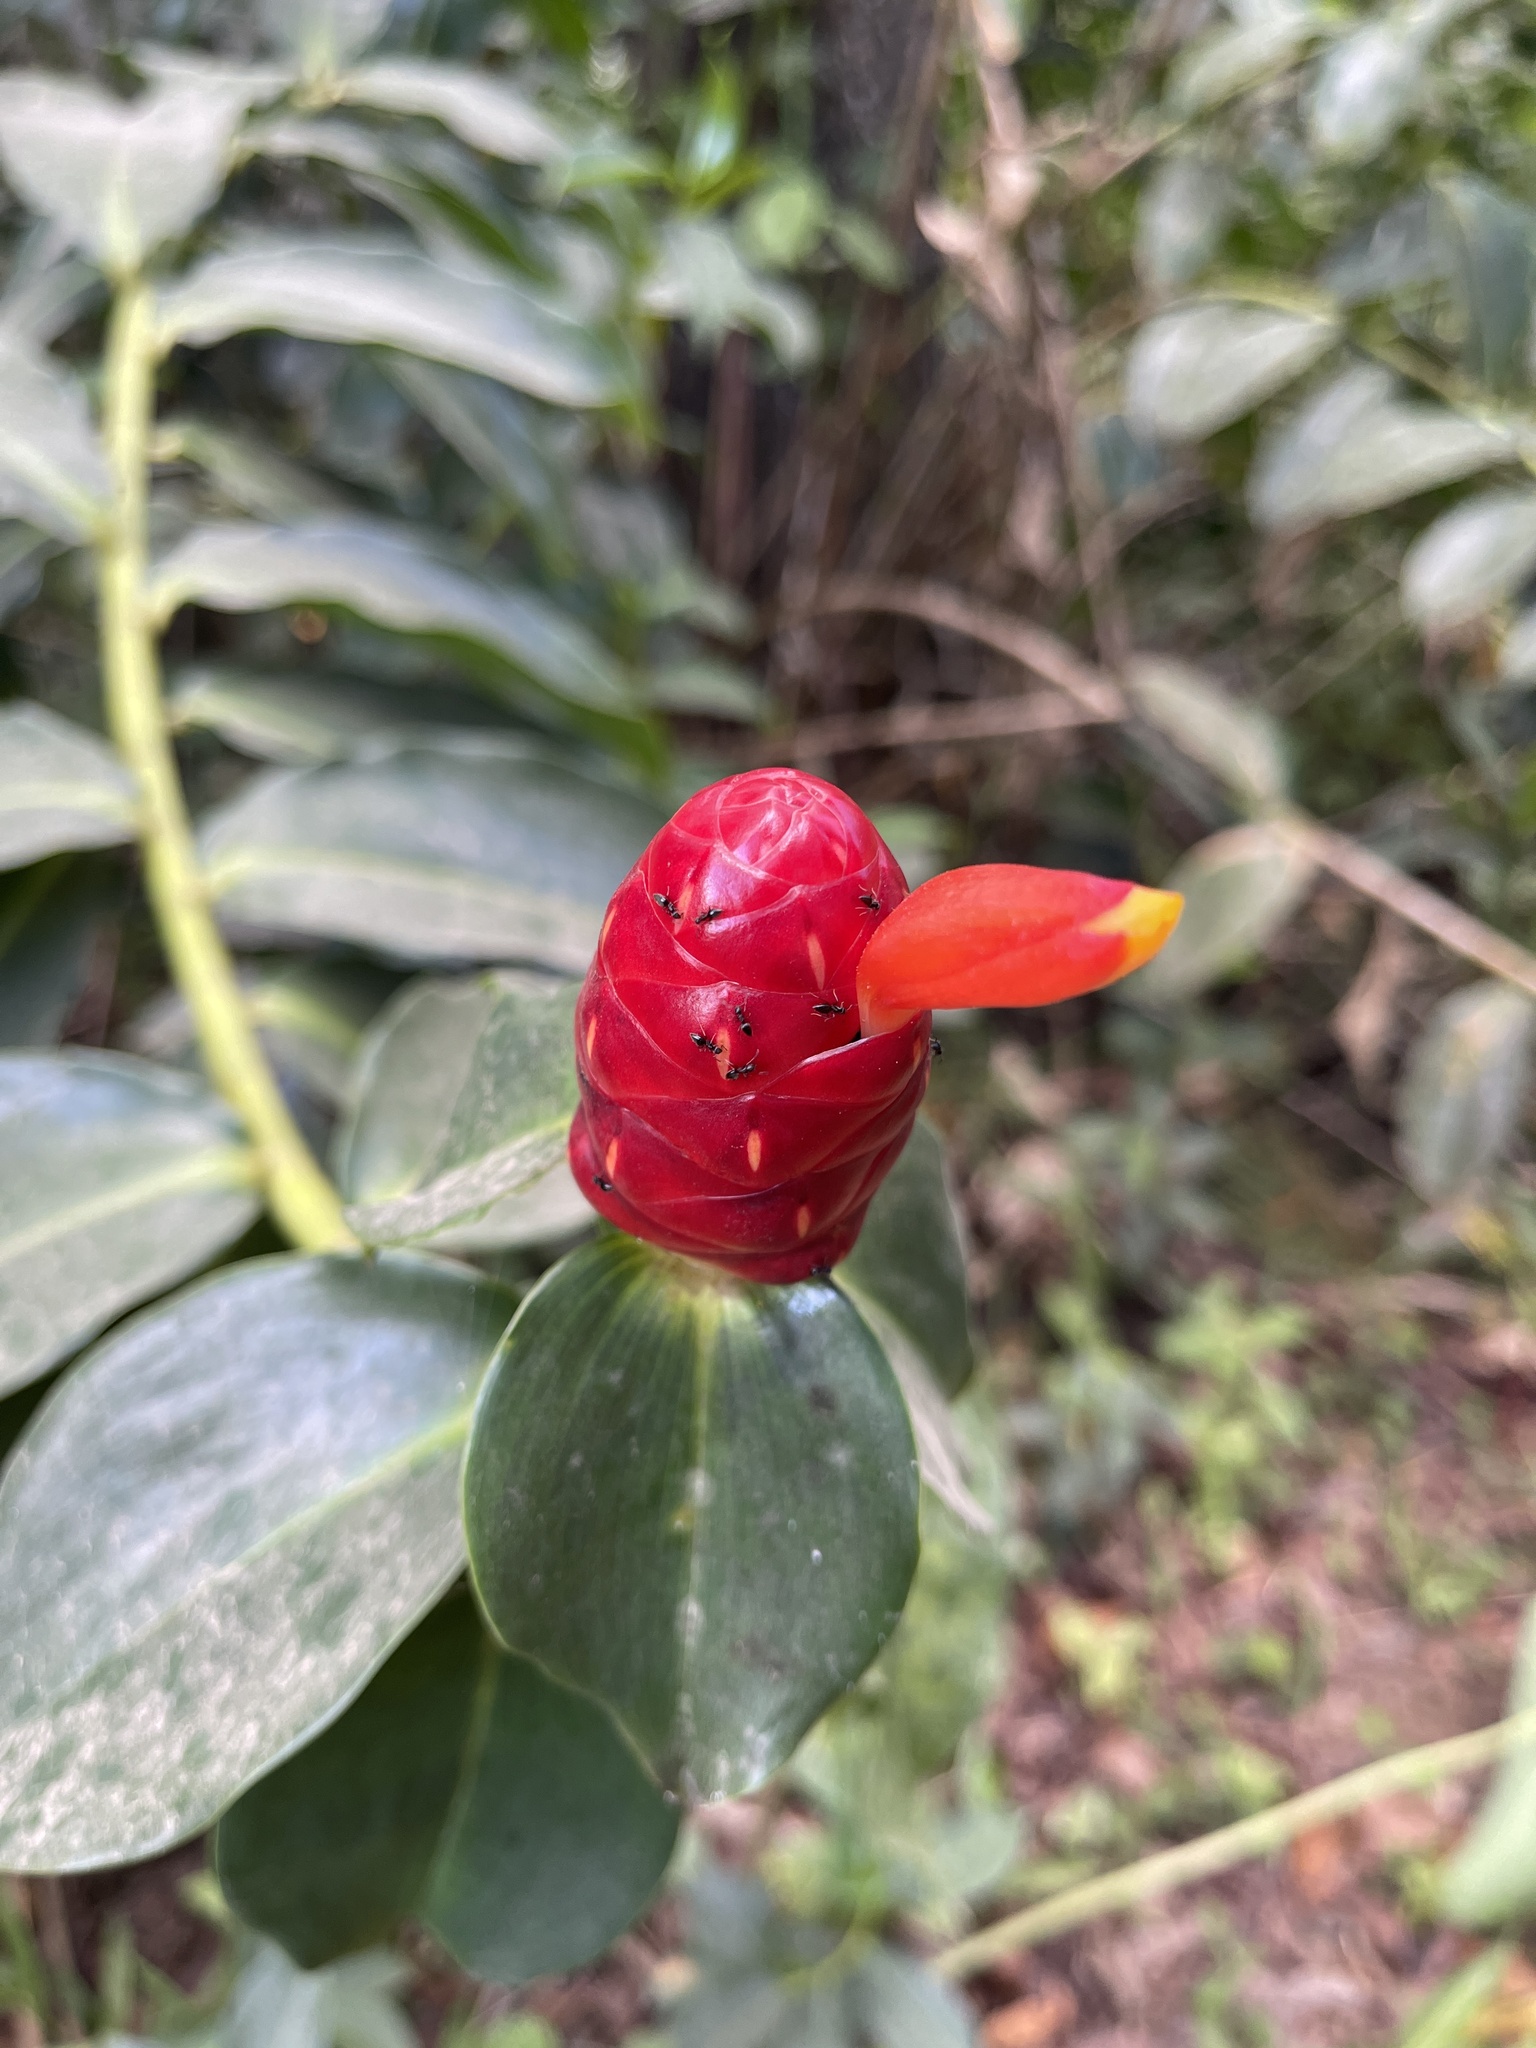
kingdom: Plantae
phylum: Tracheophyta
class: Liliopsida
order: Zingiberales
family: Costaceae
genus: Costus
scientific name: Costus woodsonii
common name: Scarlet spiral-ginger
